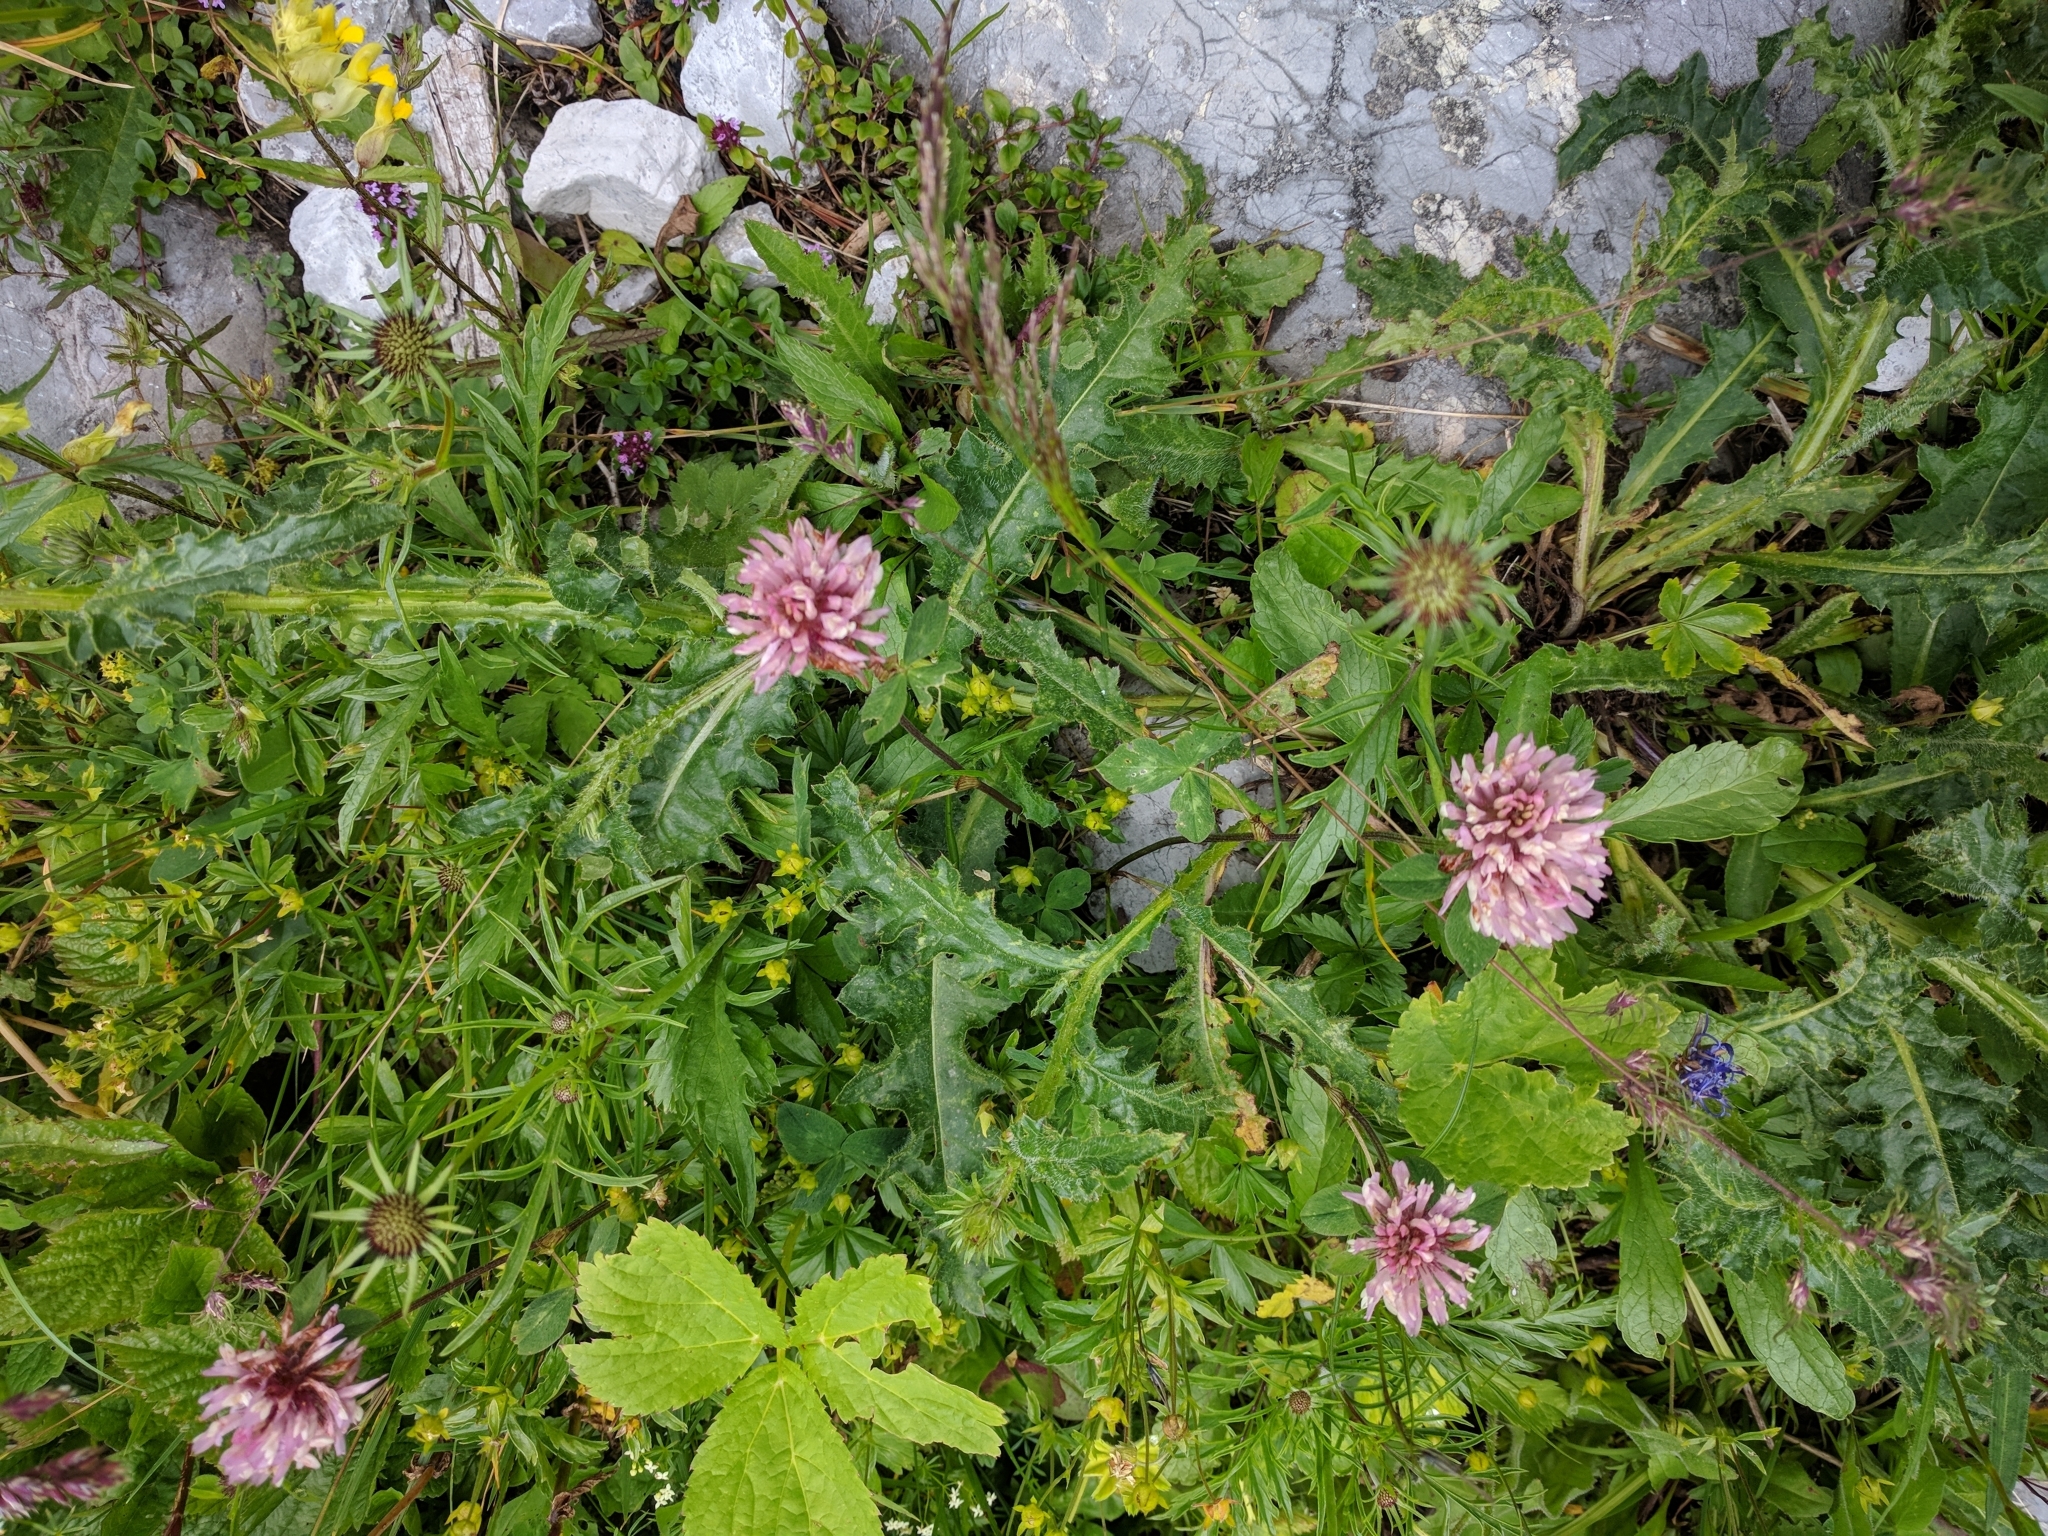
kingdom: Plantae
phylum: Tracheophyta
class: Magnoliopsida
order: Fabales
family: Fabaceae
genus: Trifolium
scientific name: Trifolium pratense
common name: Red clover
